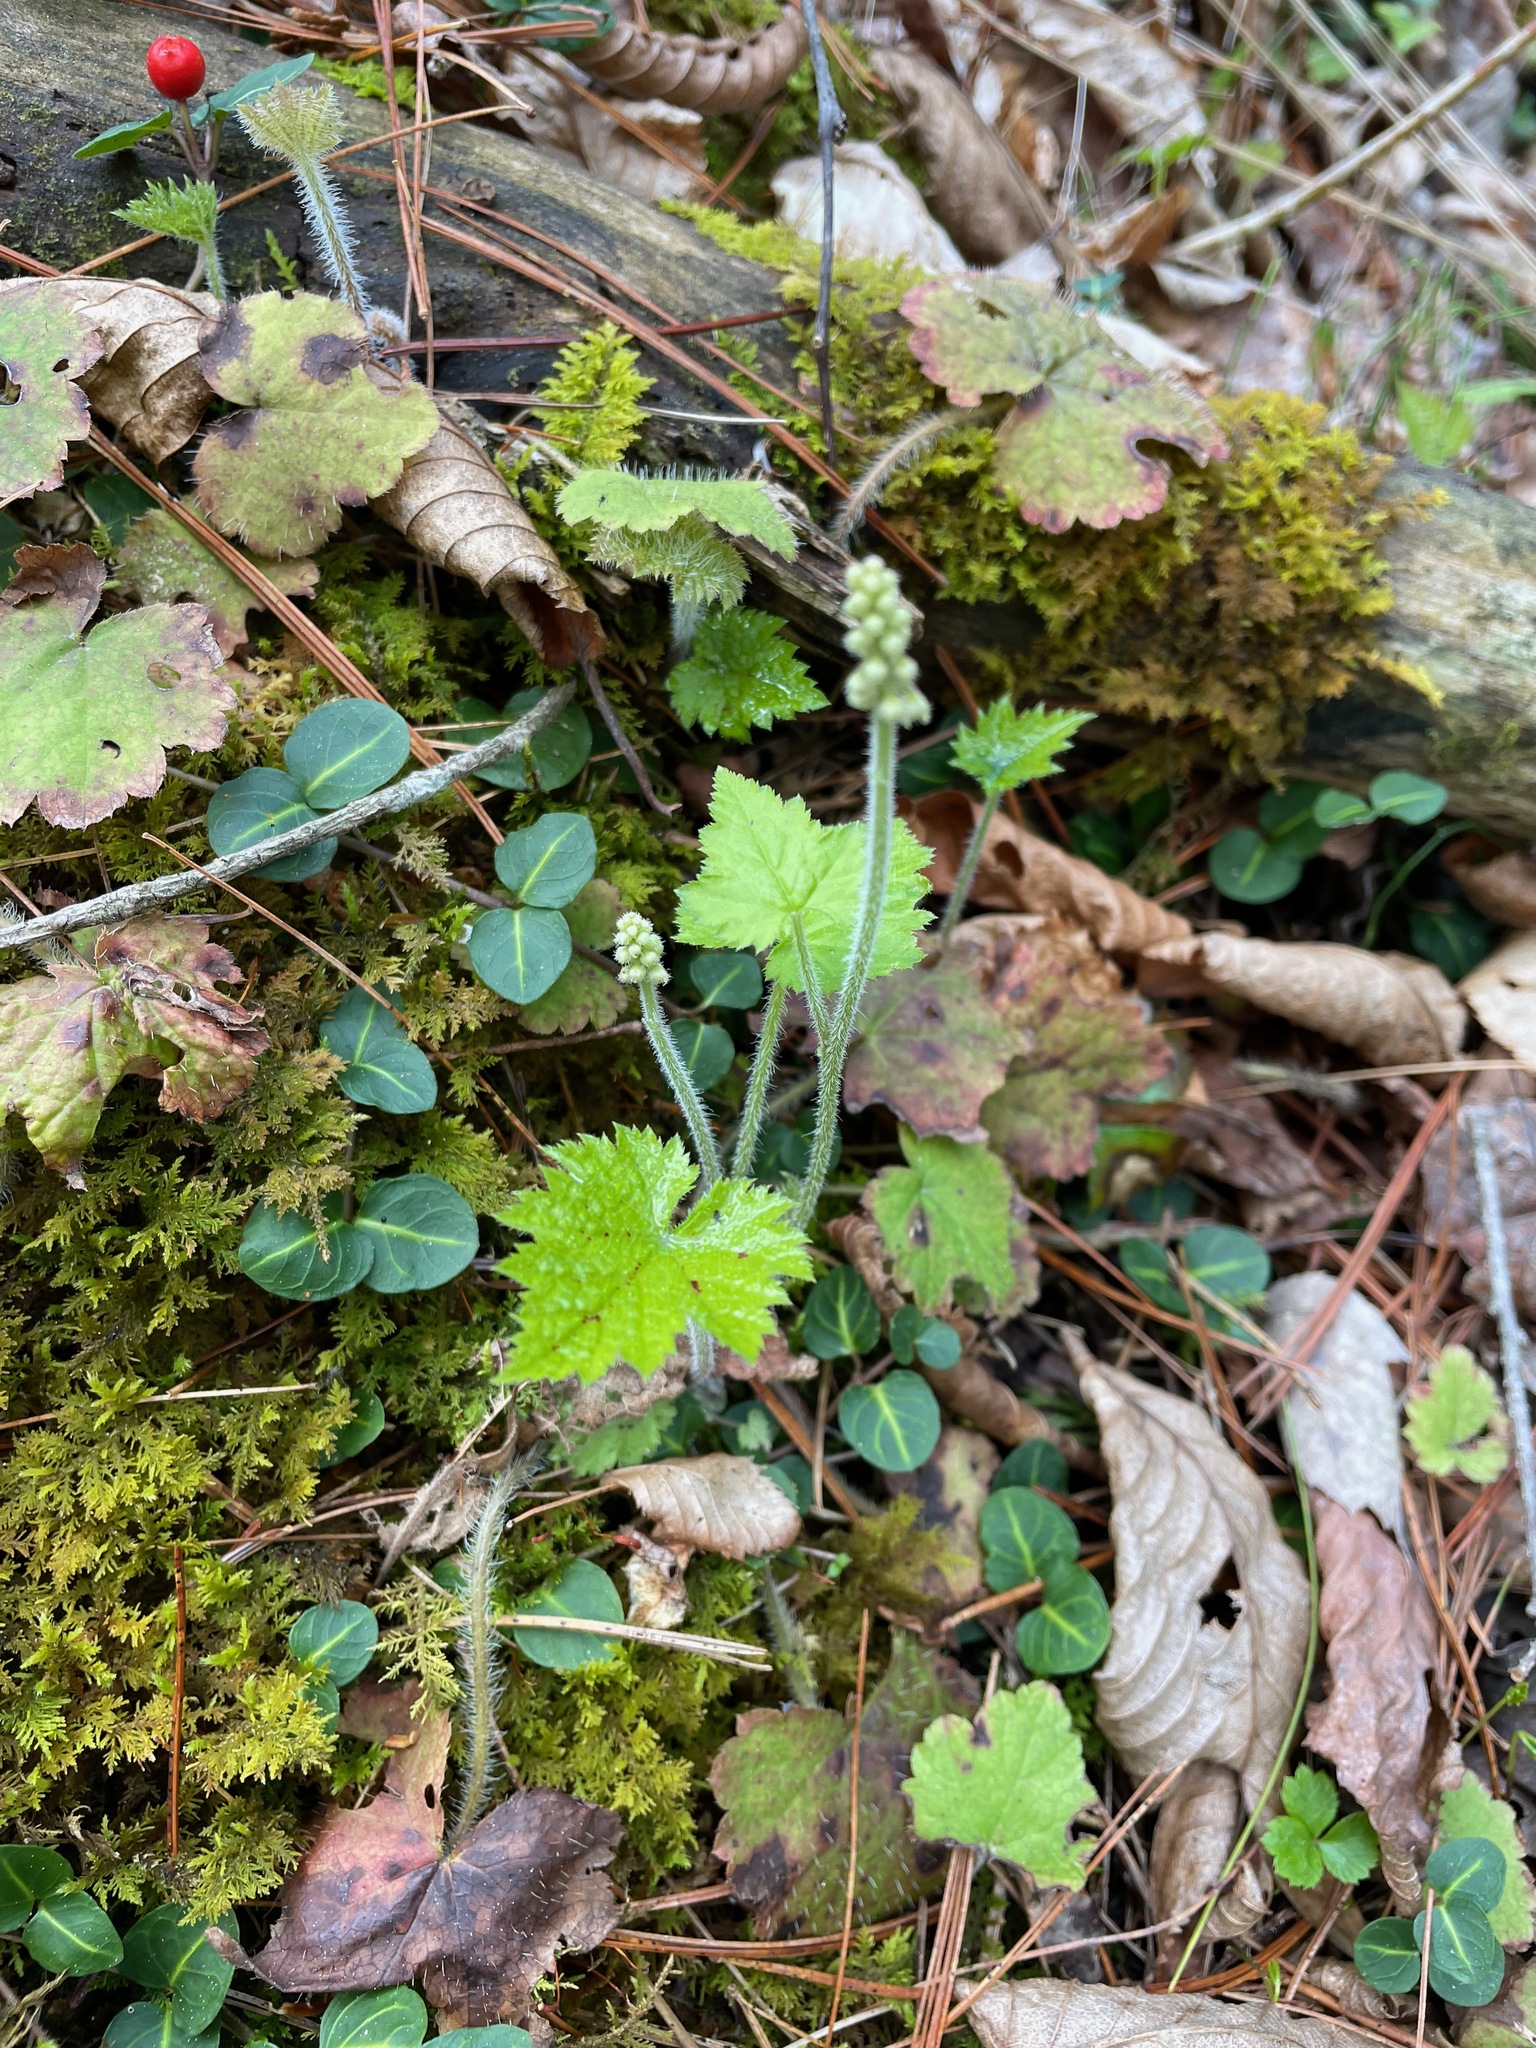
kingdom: Plantae
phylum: Tracheophyta
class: Magnoliopsida
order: Saxifragales
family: Saxifragaceae
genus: Tiarella
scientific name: Tiarella stolonifera
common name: Stoloniferous foamflower
